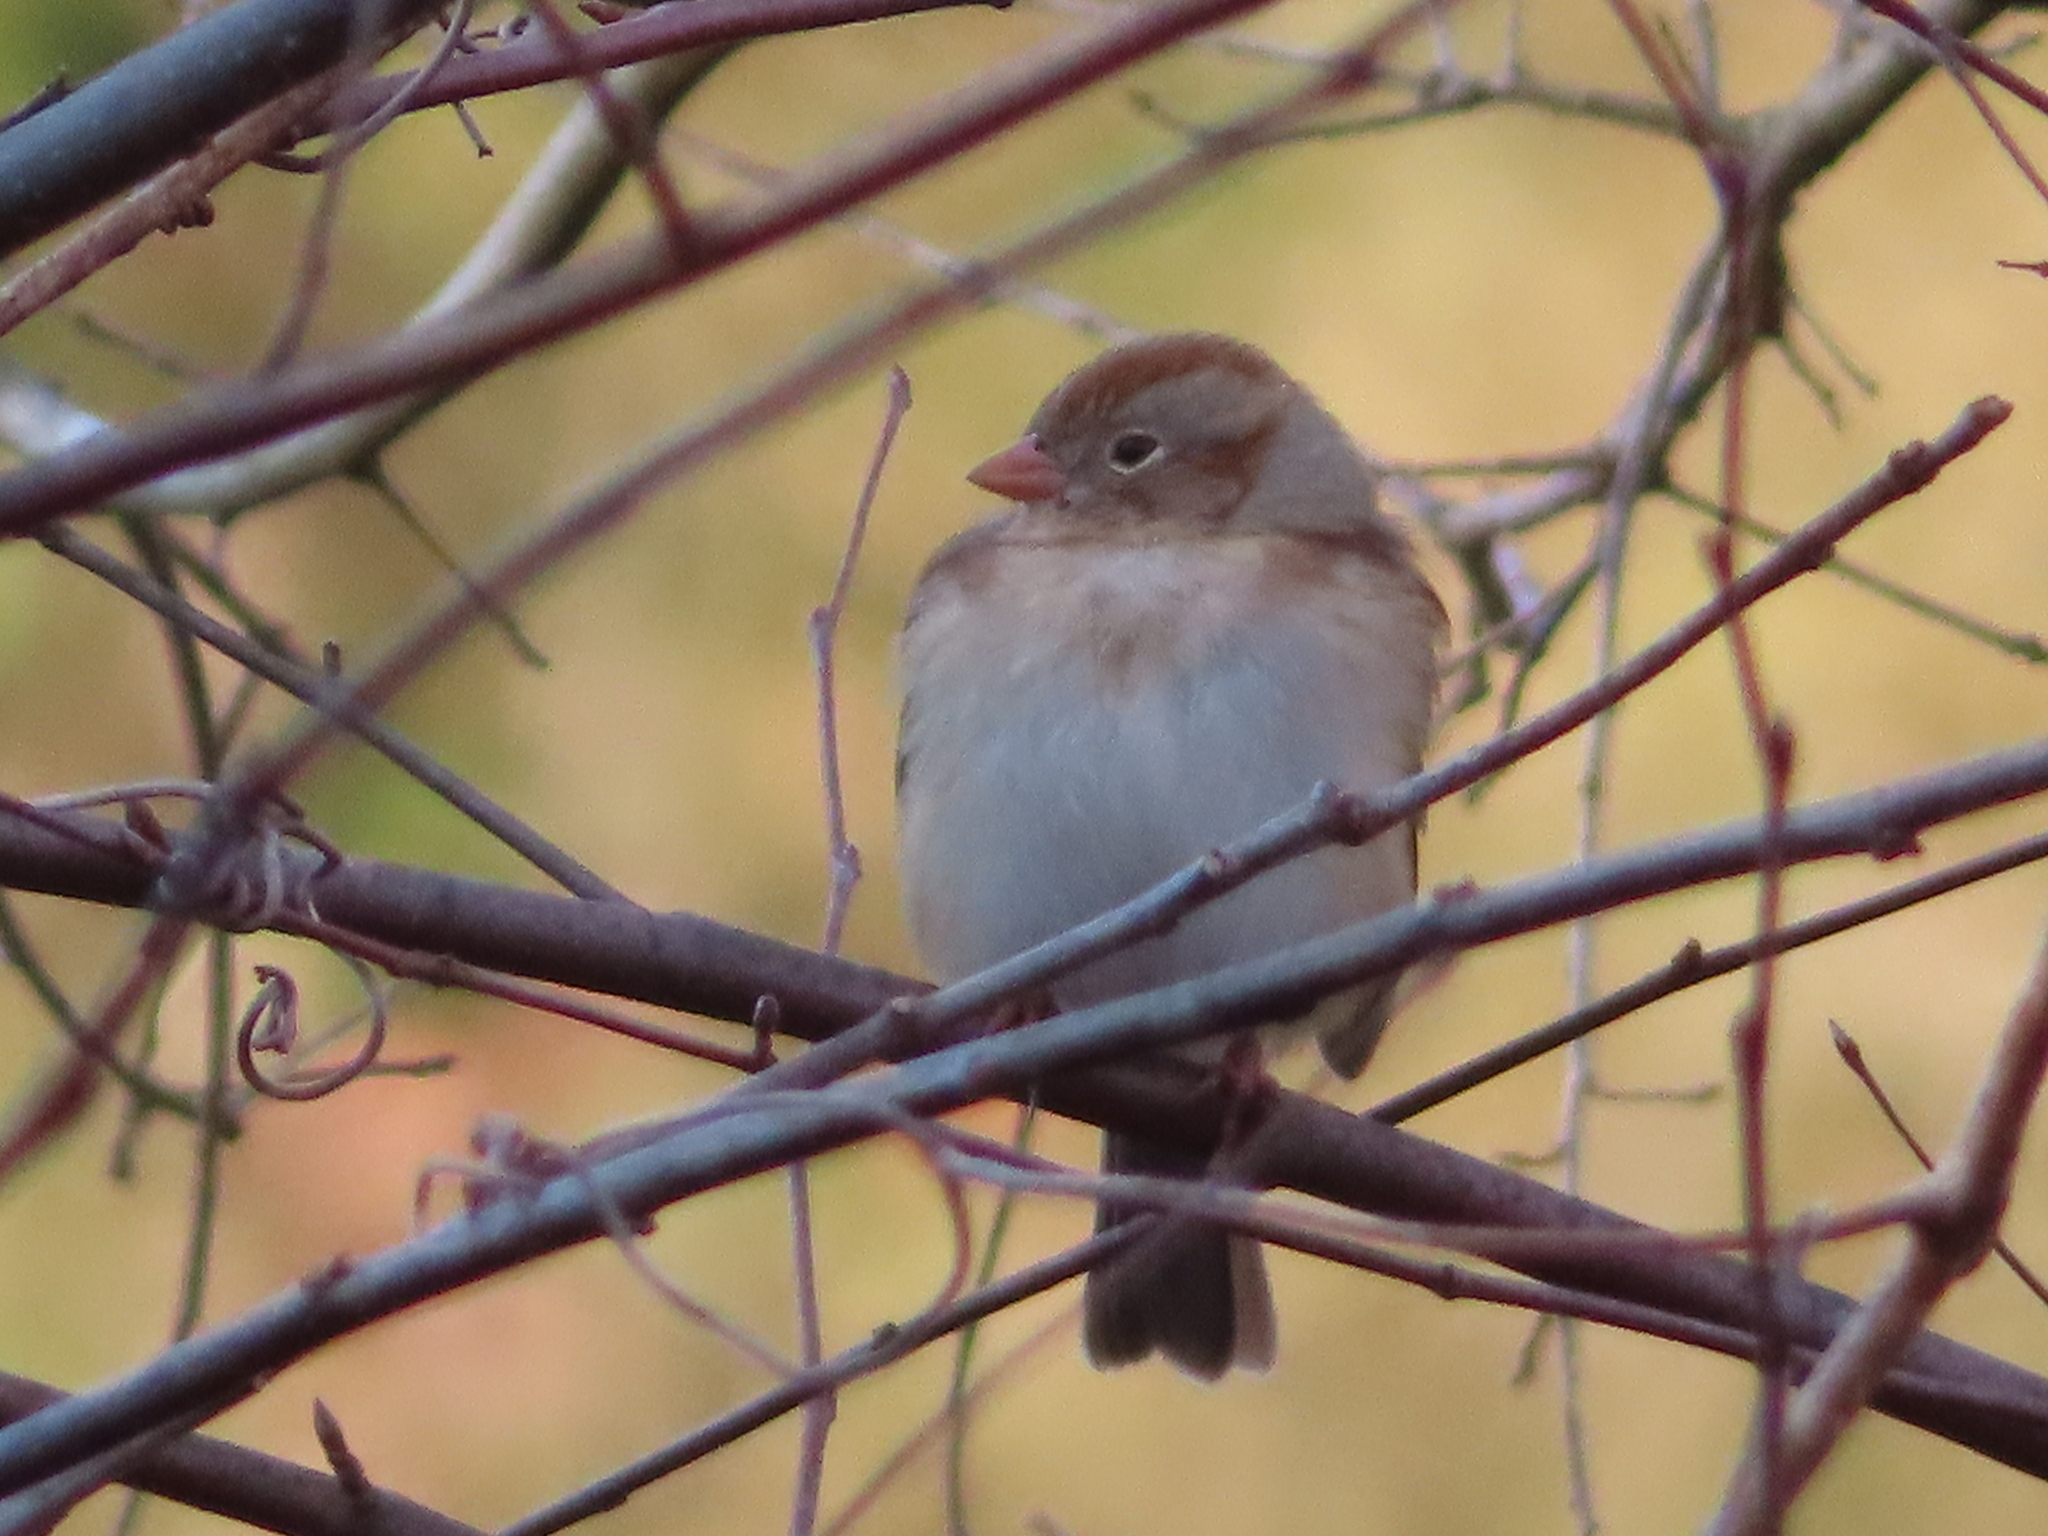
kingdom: Animalia
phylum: Chordata
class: Aves
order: Passeriformes
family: Passerellidae
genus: Spizella
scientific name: Spizella pusilla
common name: Field sparrow
